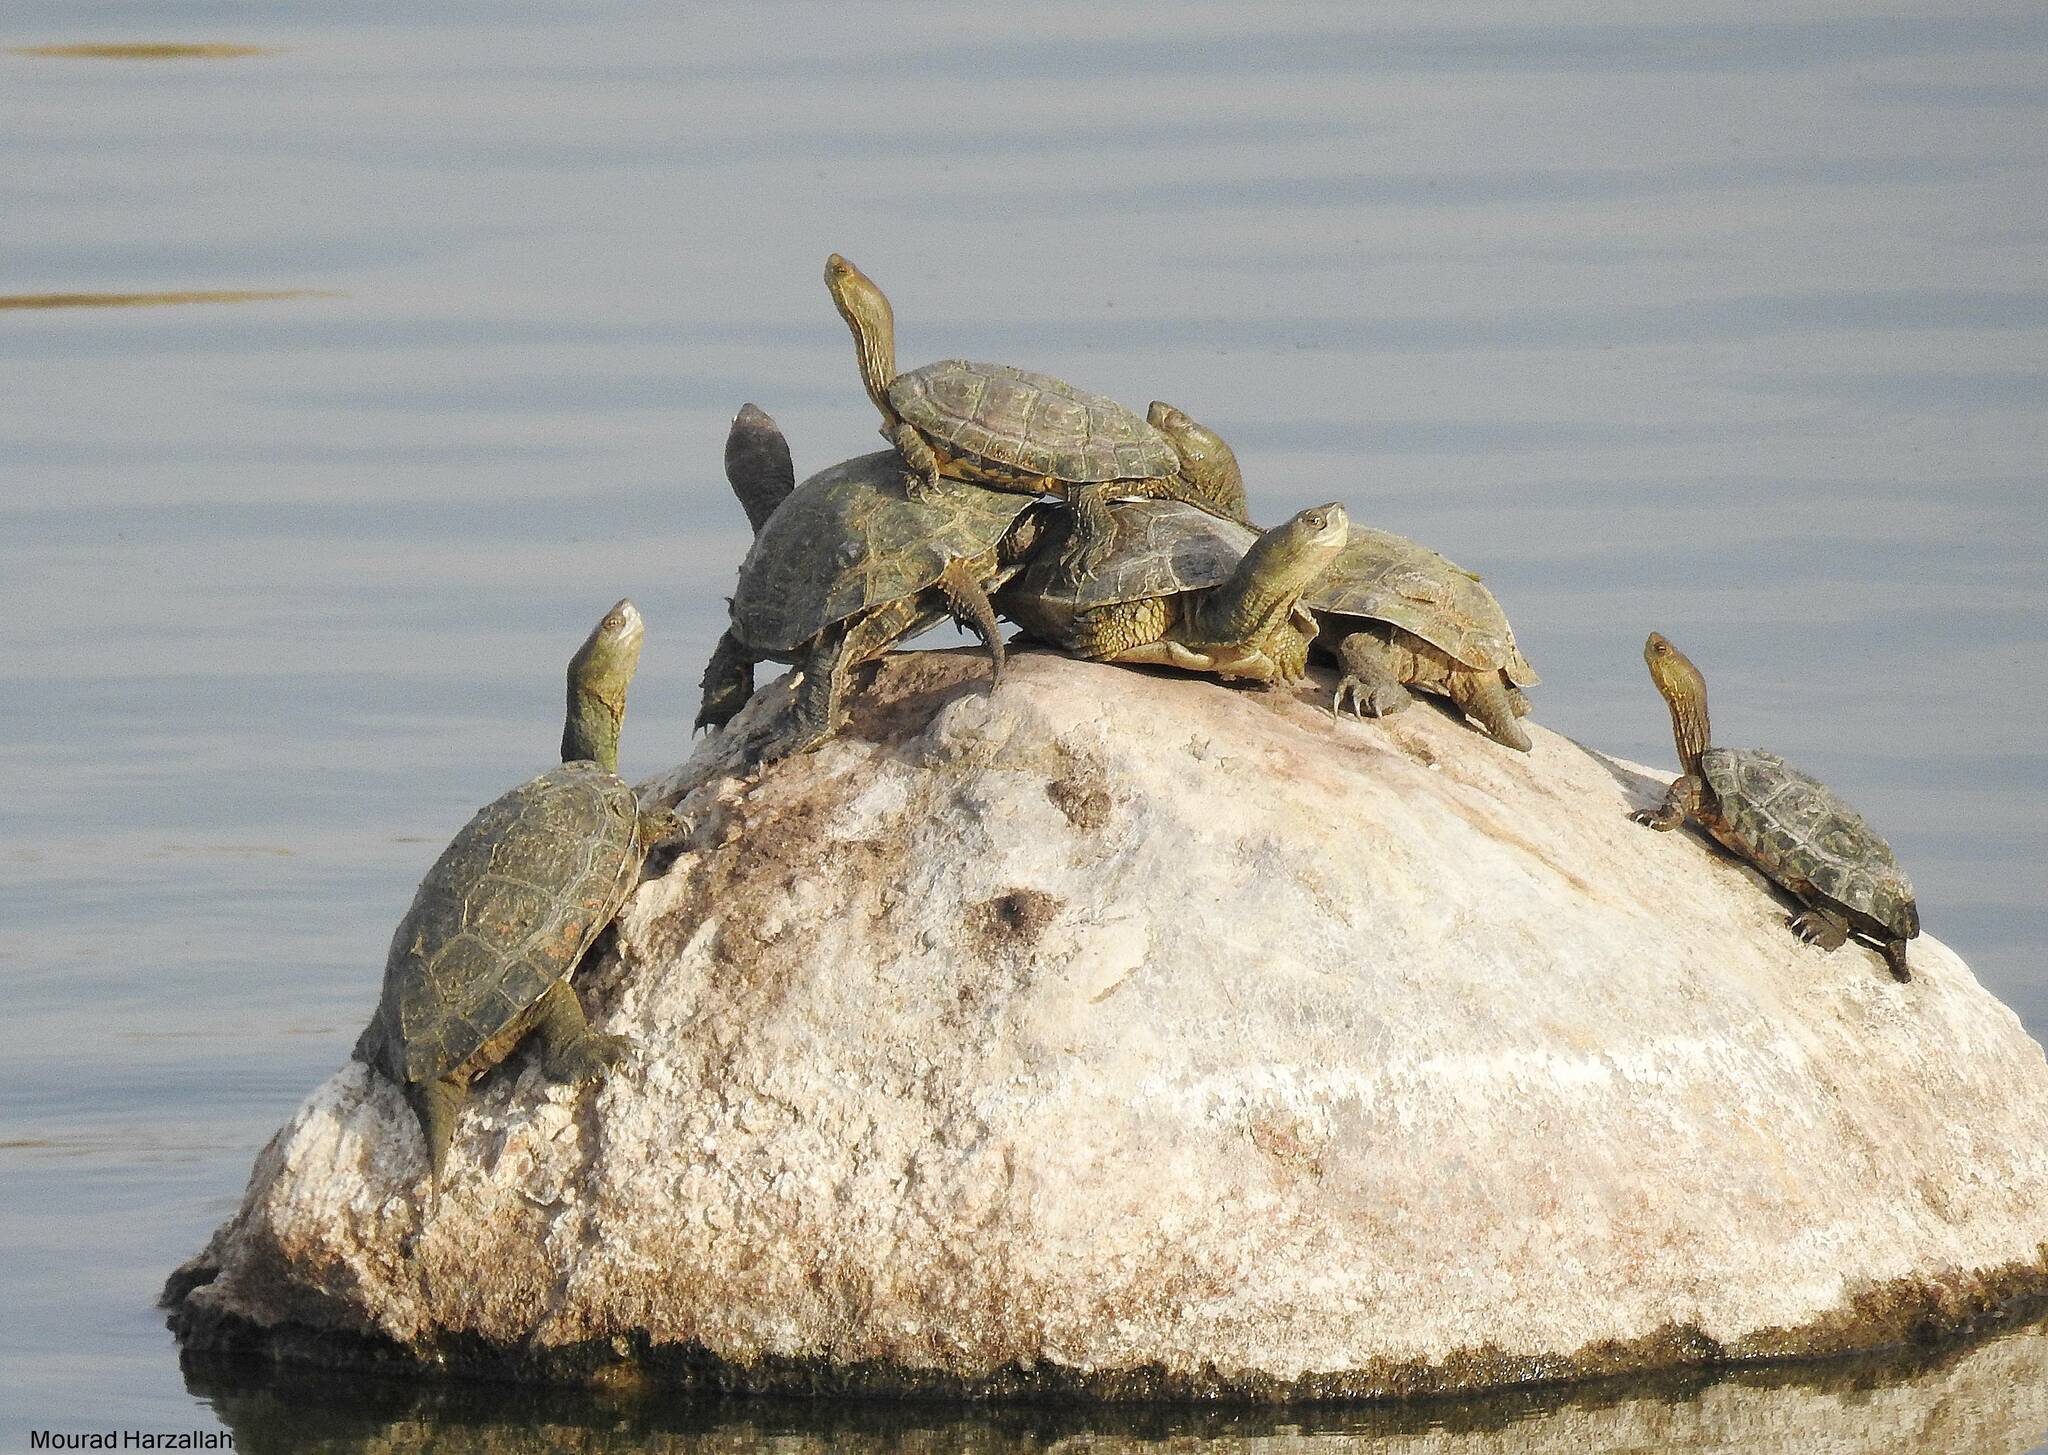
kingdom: Animalia
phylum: Chordata
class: Testudines
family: Geoemydidae
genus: Mauremys
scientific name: Mauremys leprosa
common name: Mediterranean pond turtle
